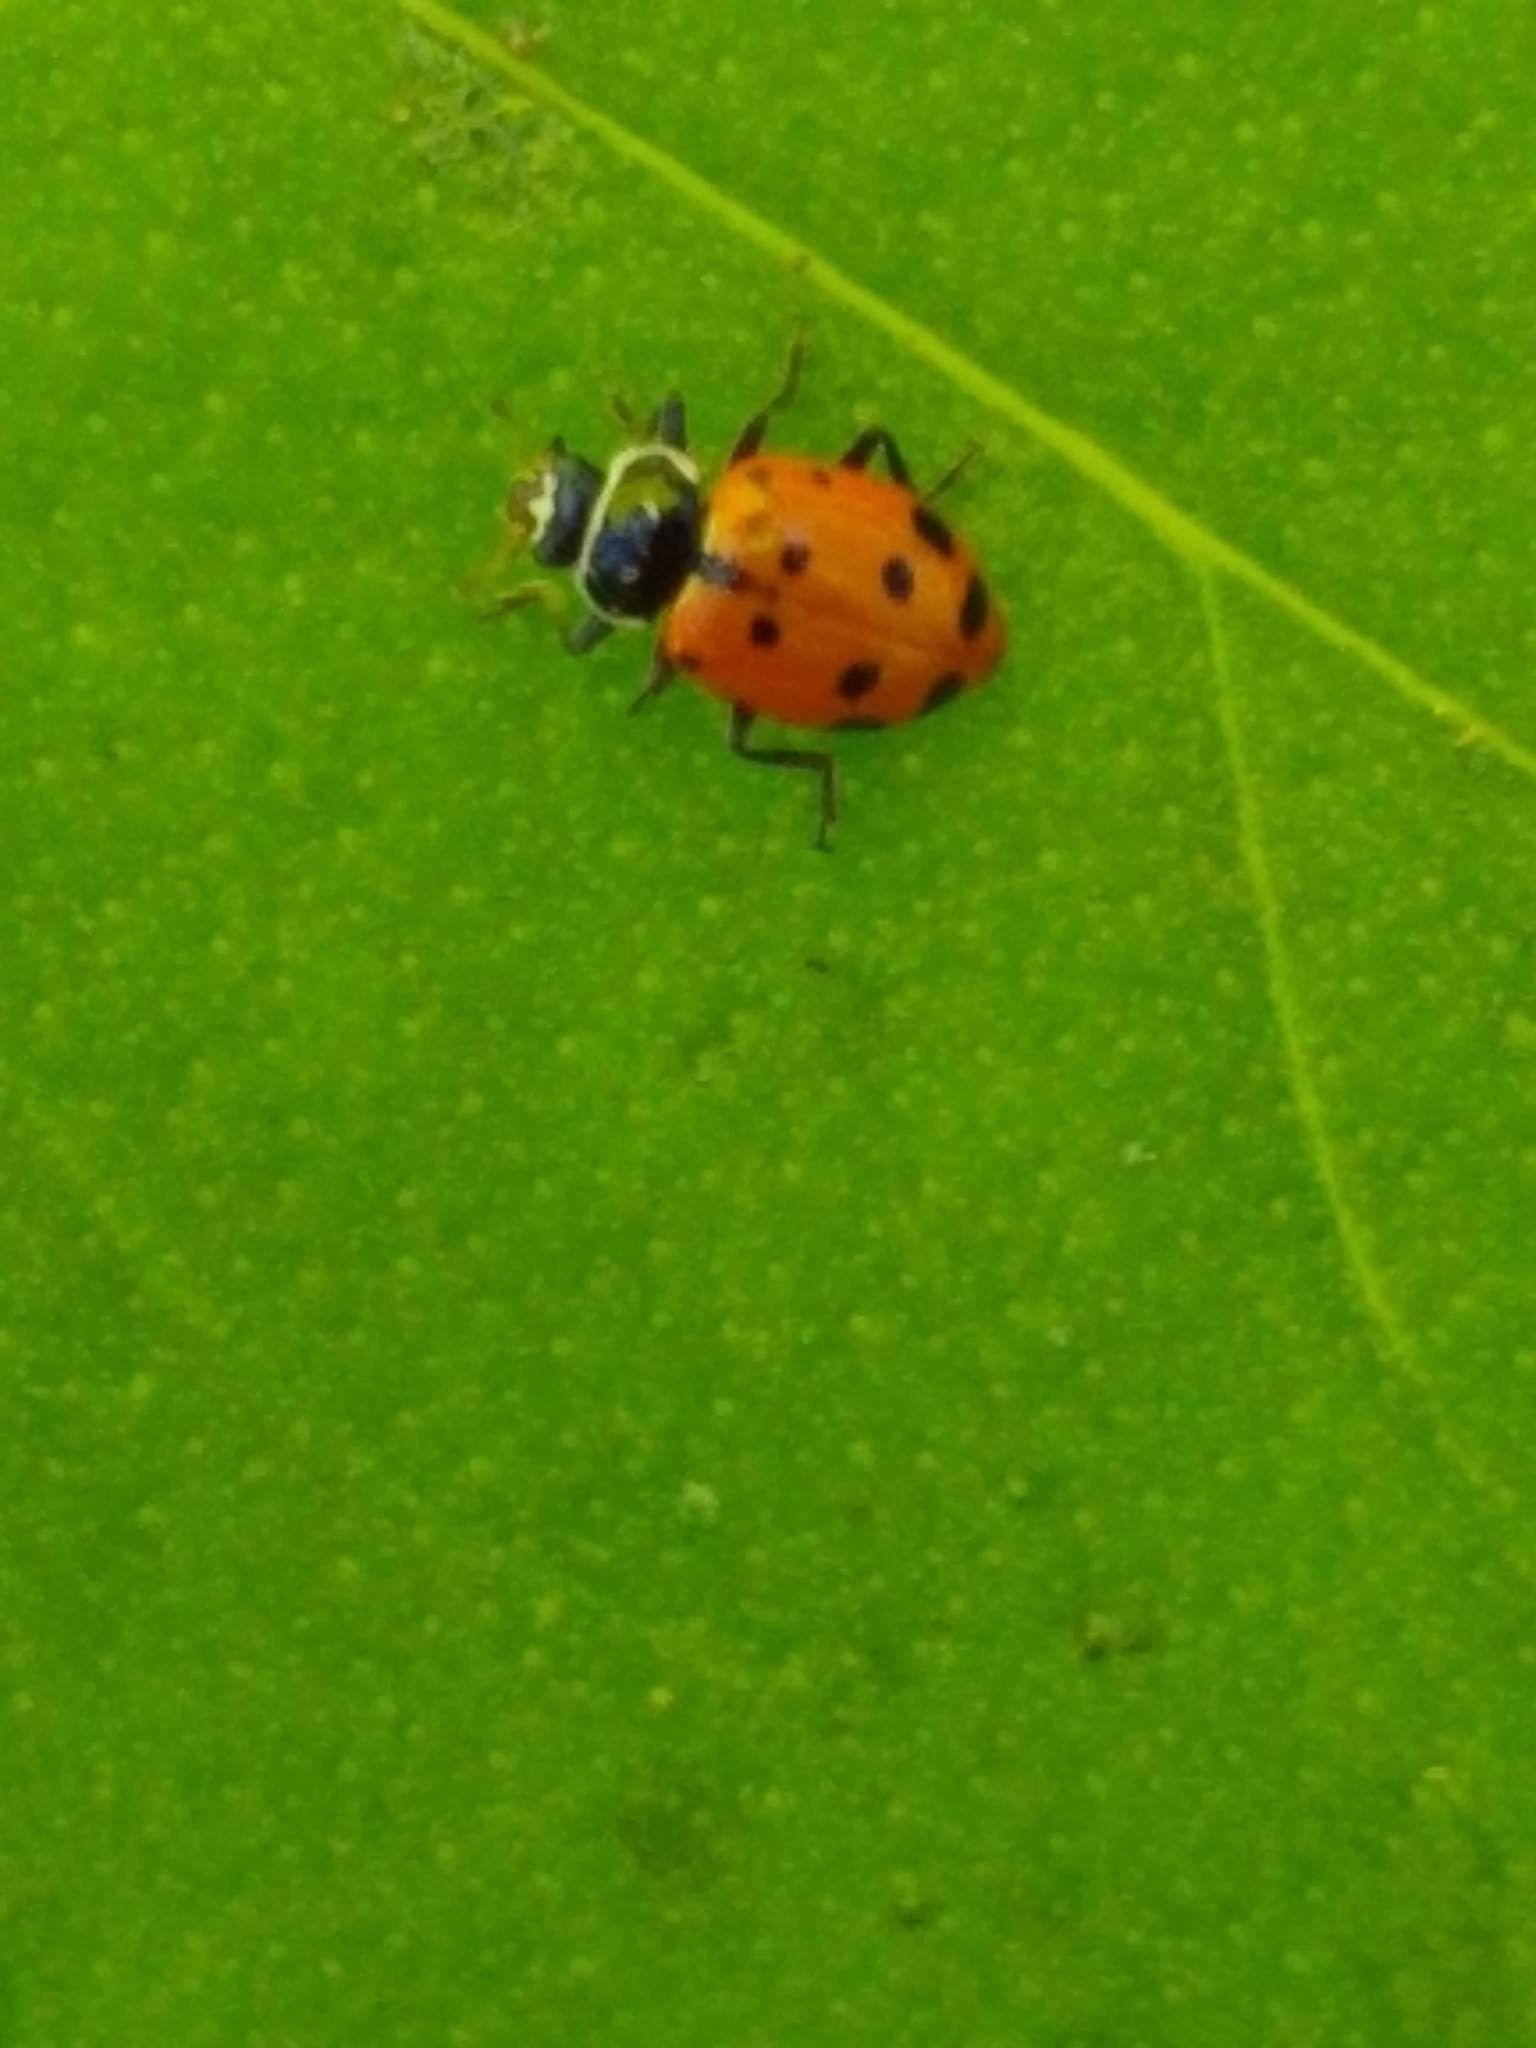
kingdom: Animalia
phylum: Arthropoda
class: Insecta
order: Coleoptera
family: Coccinellidae
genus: Hippodamia
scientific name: Hippodamia convergens
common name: Convergent lady beetle
